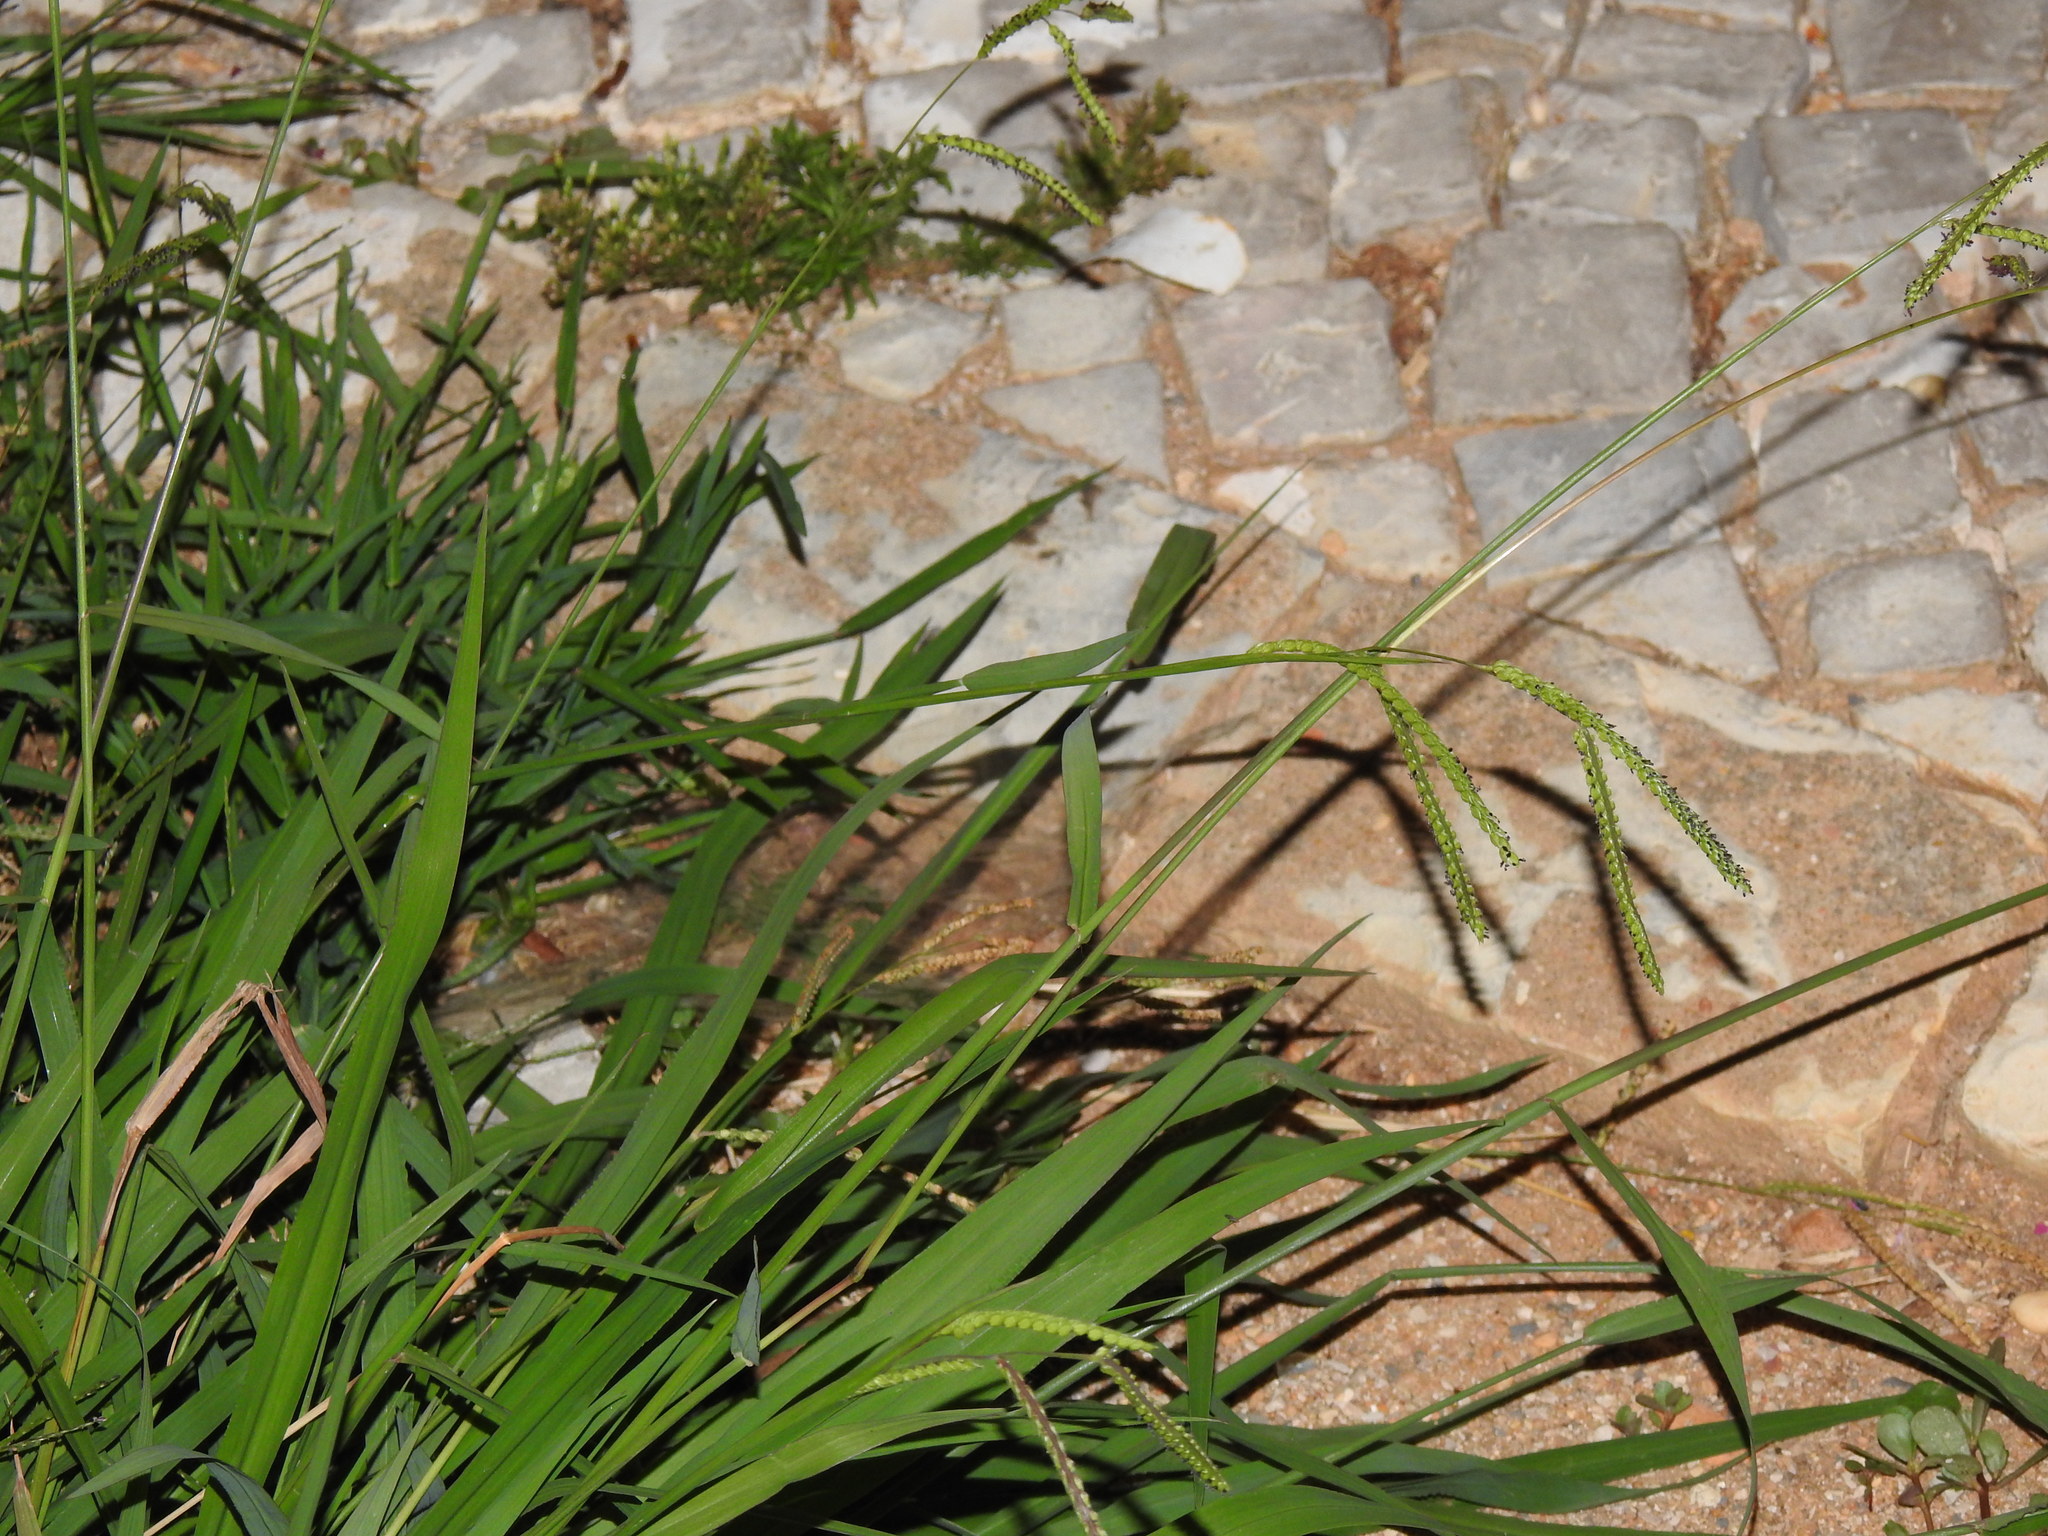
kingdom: Plantae
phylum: Tracheophyta
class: Liliopsida
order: Poales
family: Poaceae
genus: Paspalum
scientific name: Paspalum dilatatum
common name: Dallisgrass
